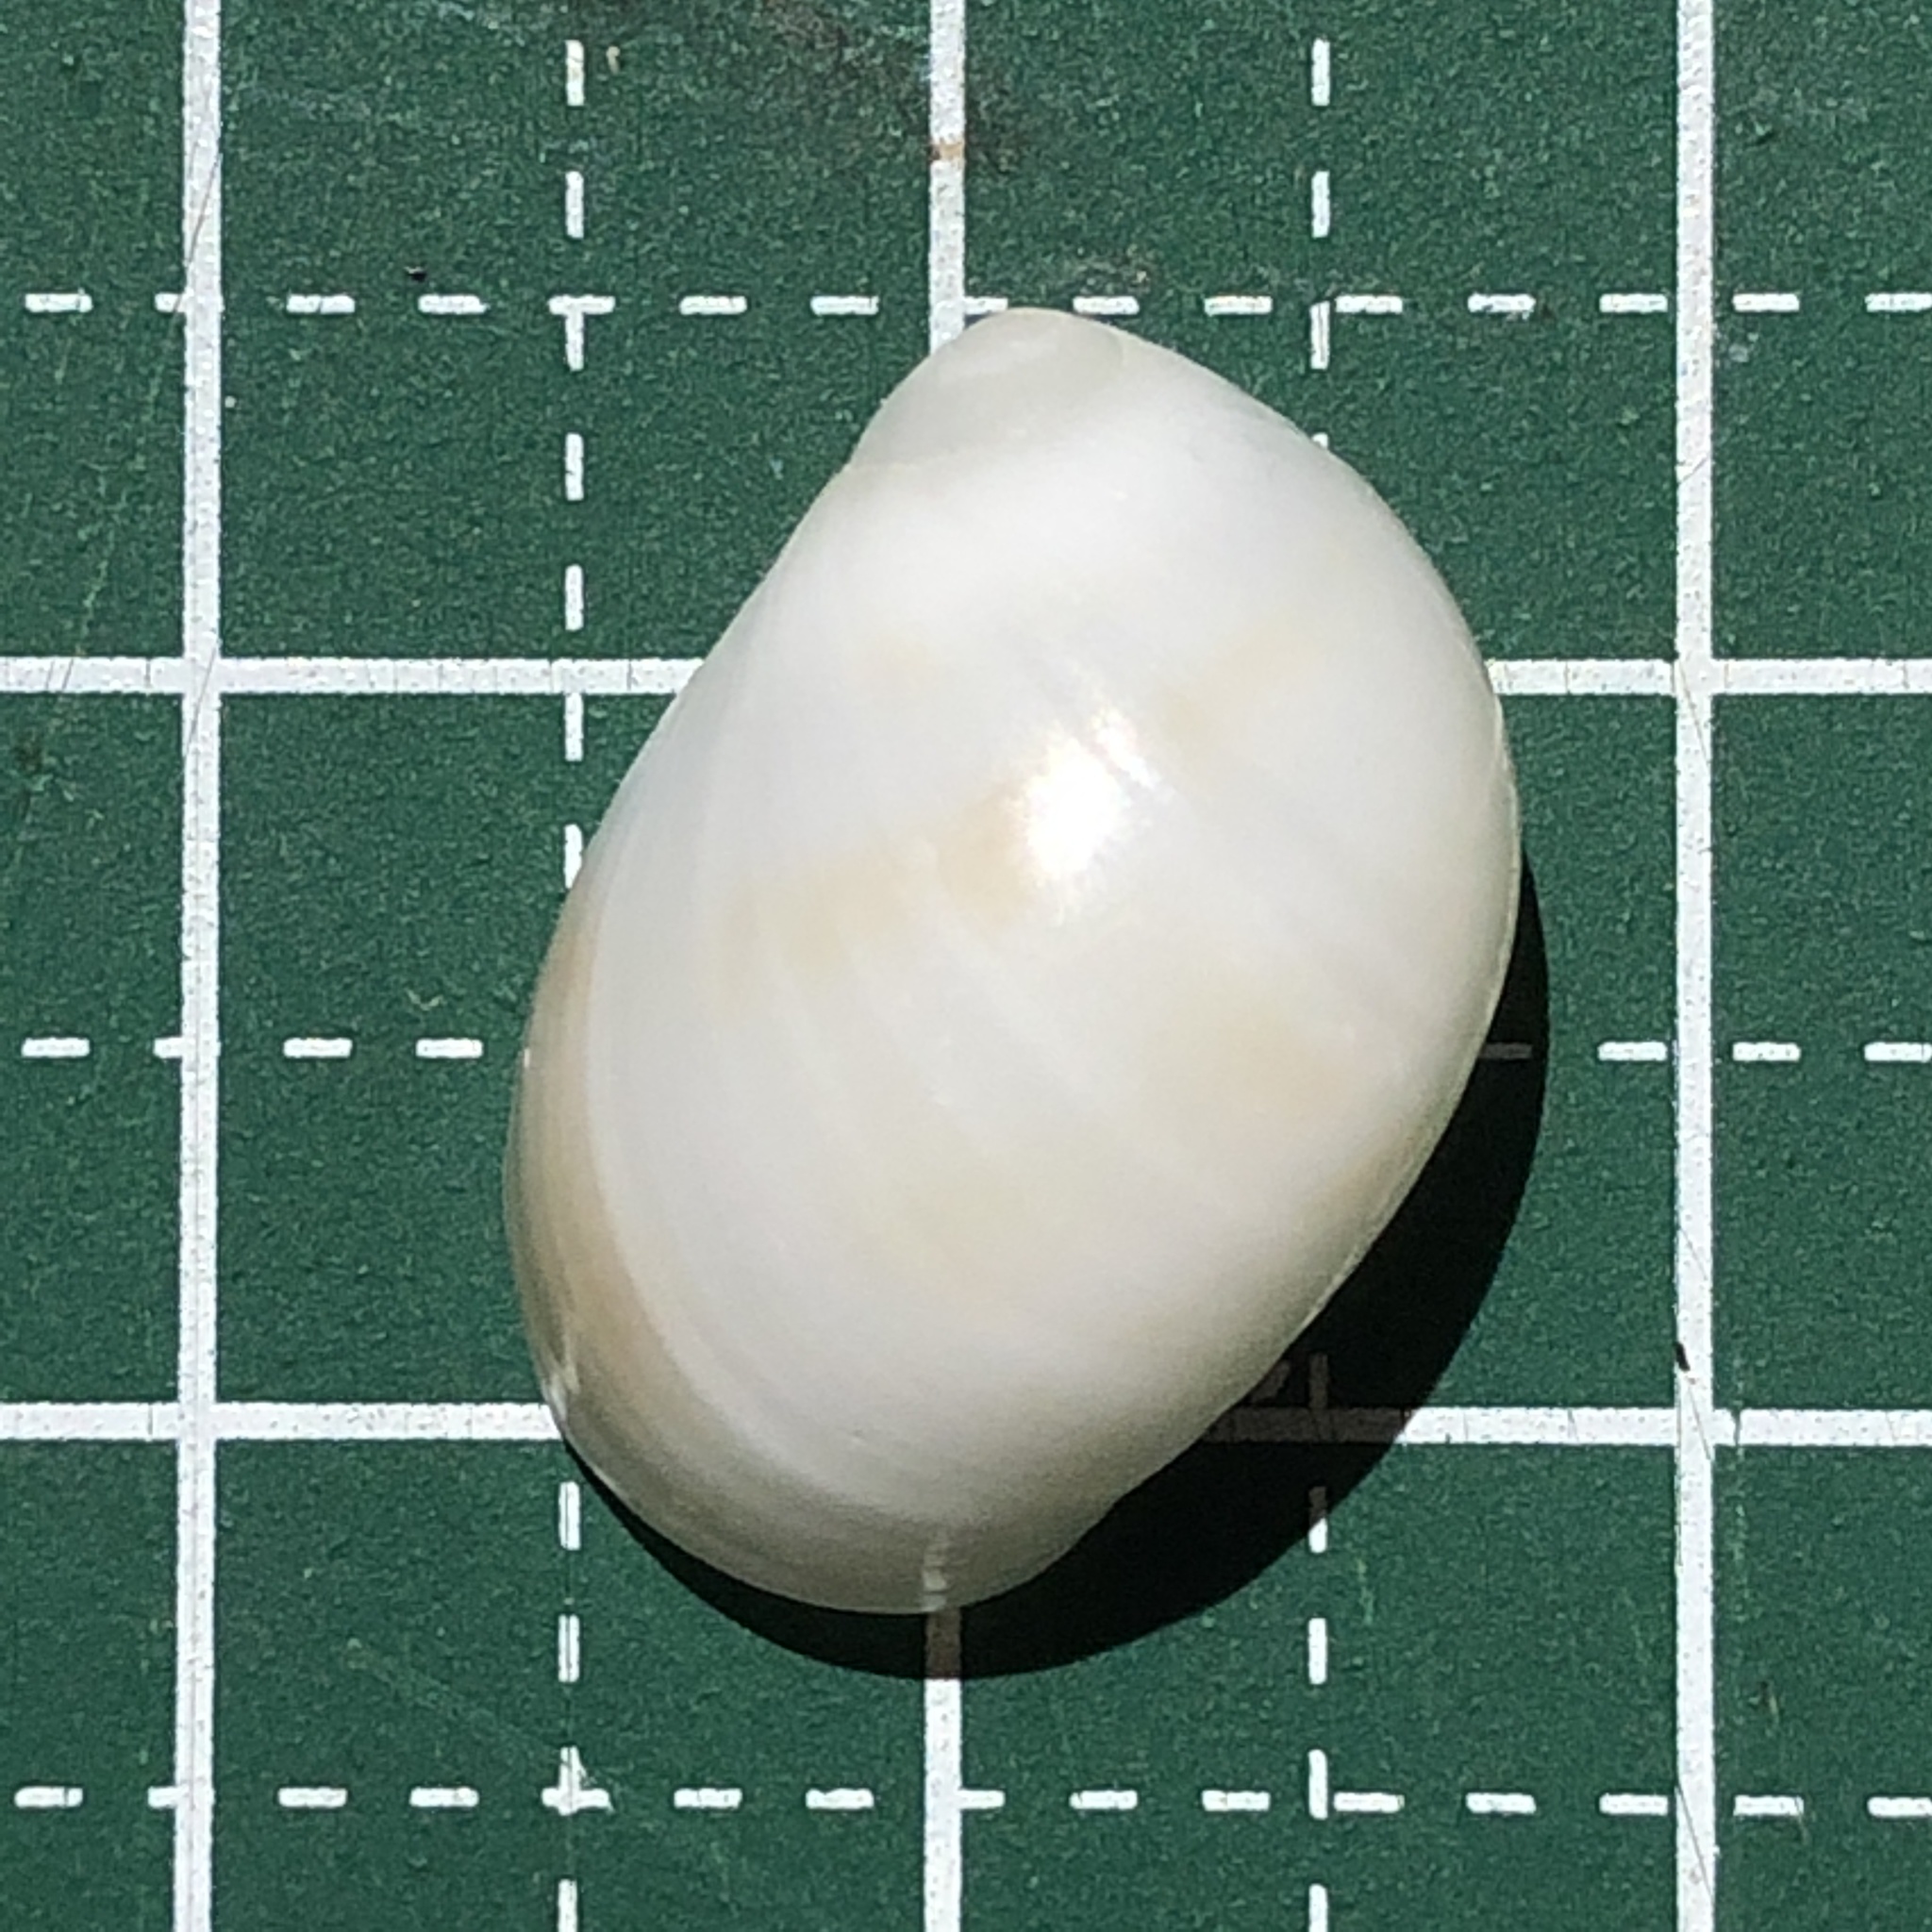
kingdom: Animalia
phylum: Mollusca
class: Gastropoda
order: Littorinimorpha
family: Naticidae
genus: Mammilla
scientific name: Mammilla melanostoma
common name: Black-mouth moonsnail
